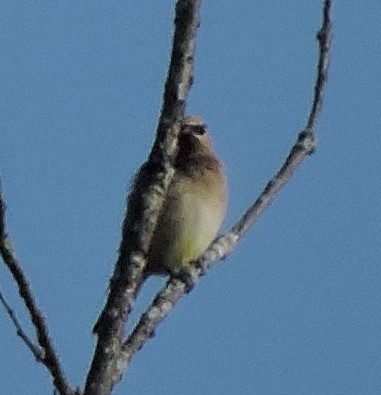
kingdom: Animalia
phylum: Chordata
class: Aves
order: Passeriformes
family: Bombycillidae
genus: Bombycilla
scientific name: Bombycilla cedrorum
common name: Cedar waxwing
